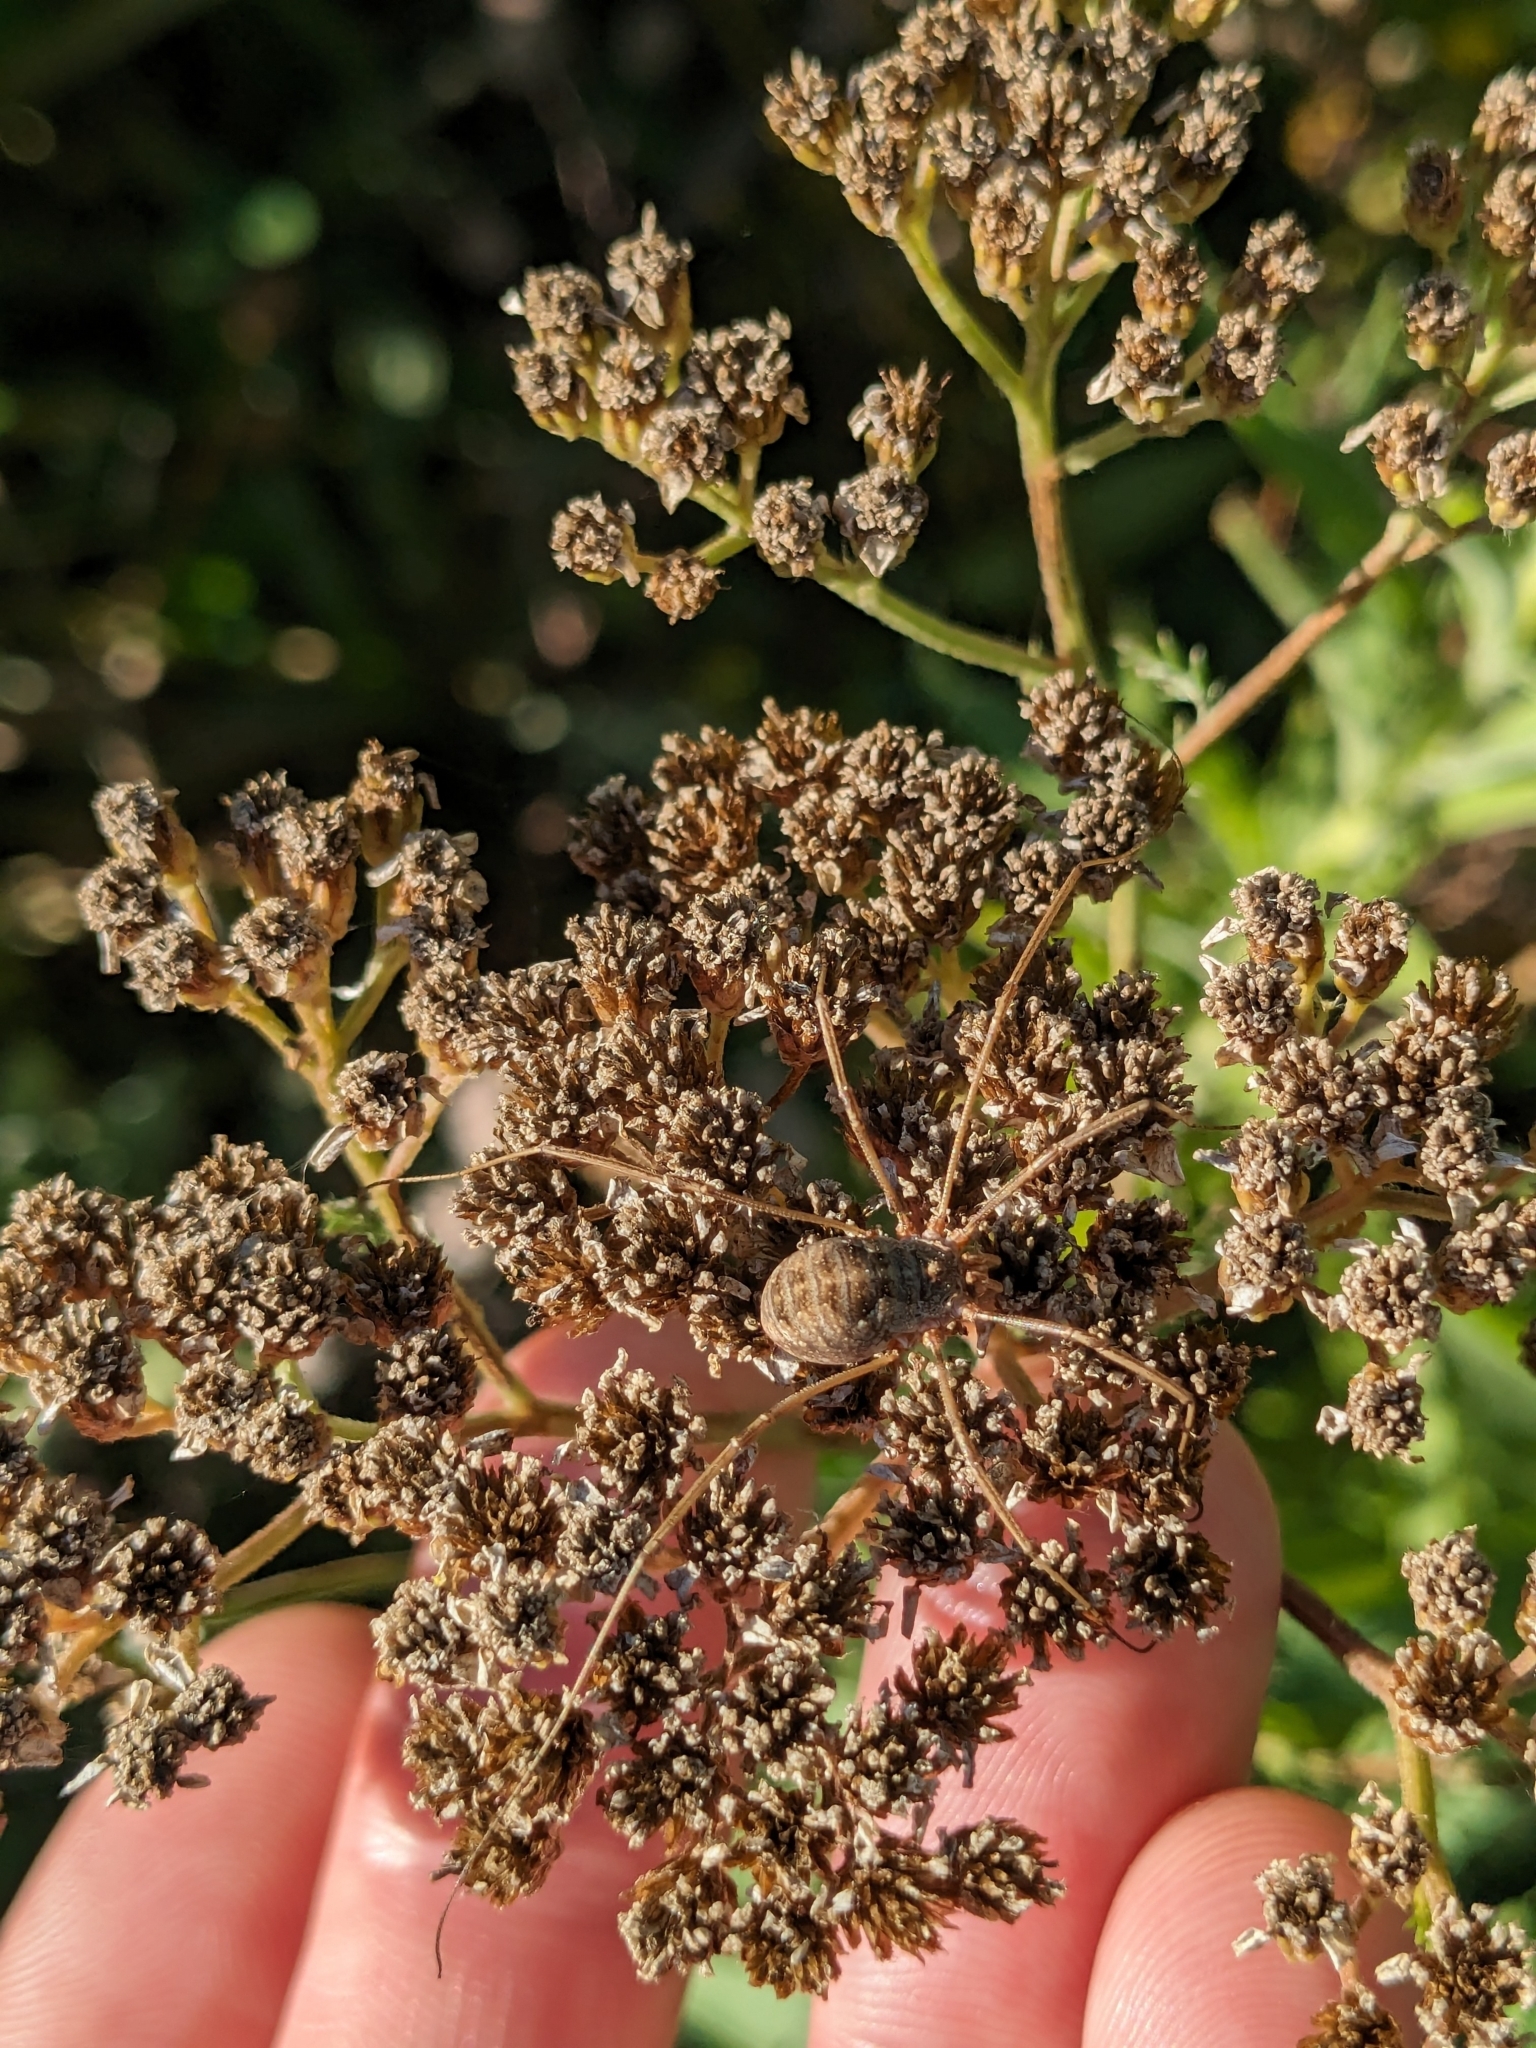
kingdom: Animalia
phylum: Arthropoda
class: Arachnida
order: Opiliones
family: Phalangiidae
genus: Phalangium
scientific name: Phalangium opilio
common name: Daddy longleg
